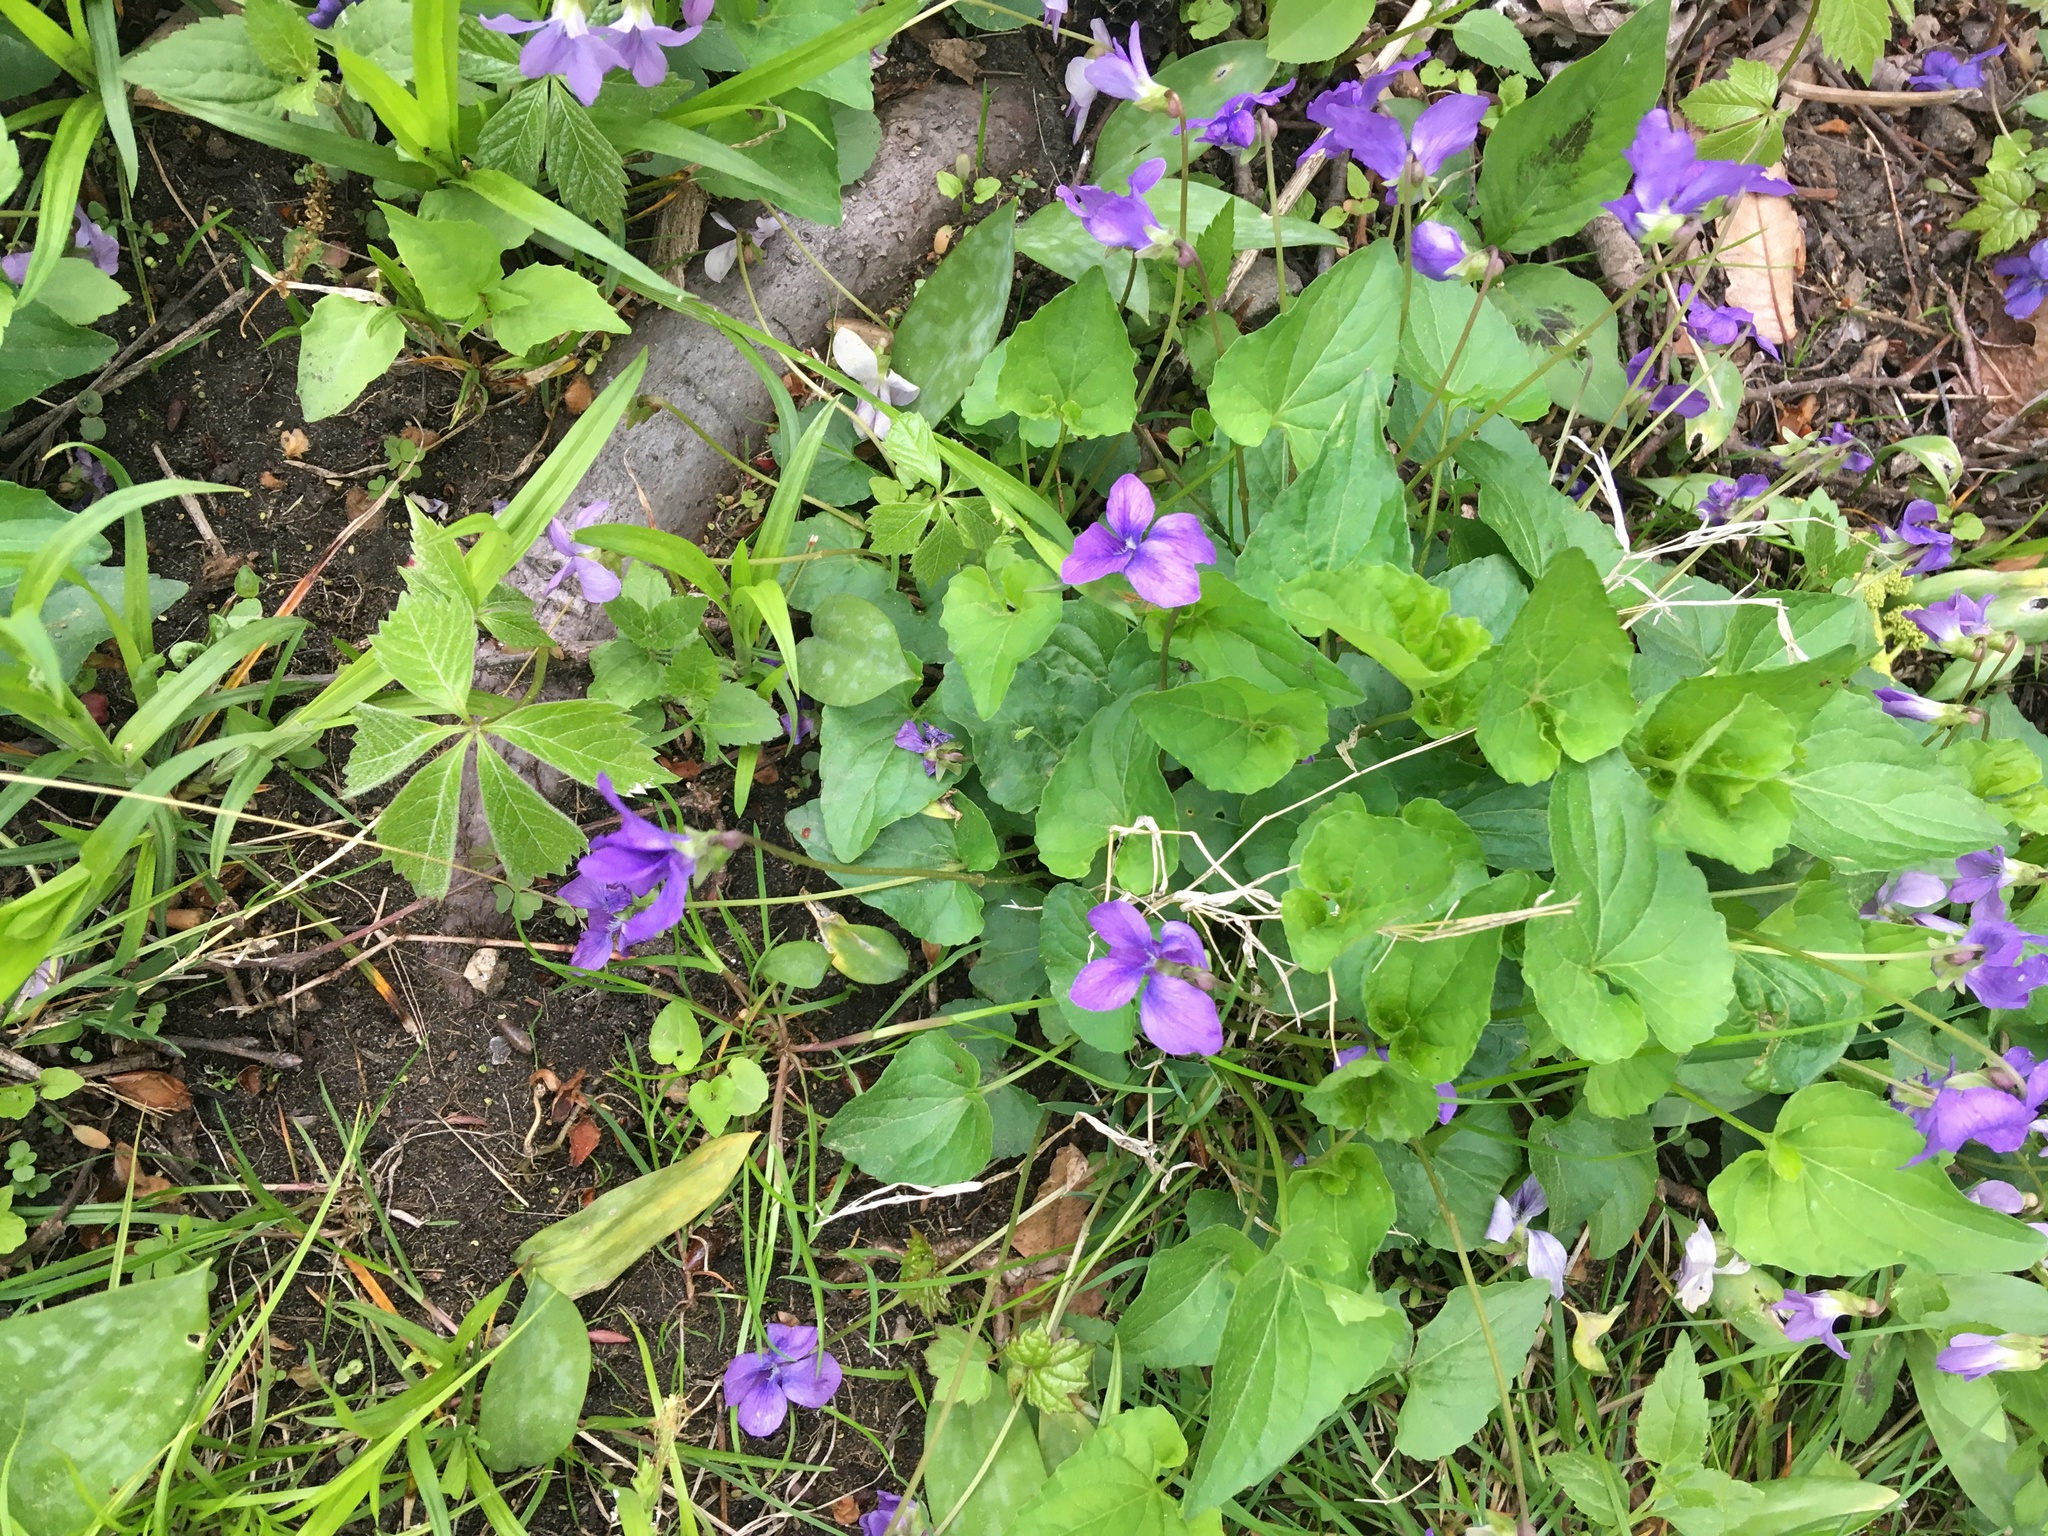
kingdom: Plantae
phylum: Tracheophyta
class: Magnoliopsida
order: Malpighiales
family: Violaceae
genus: Viola
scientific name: Viola sororia
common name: Dooryard violet
